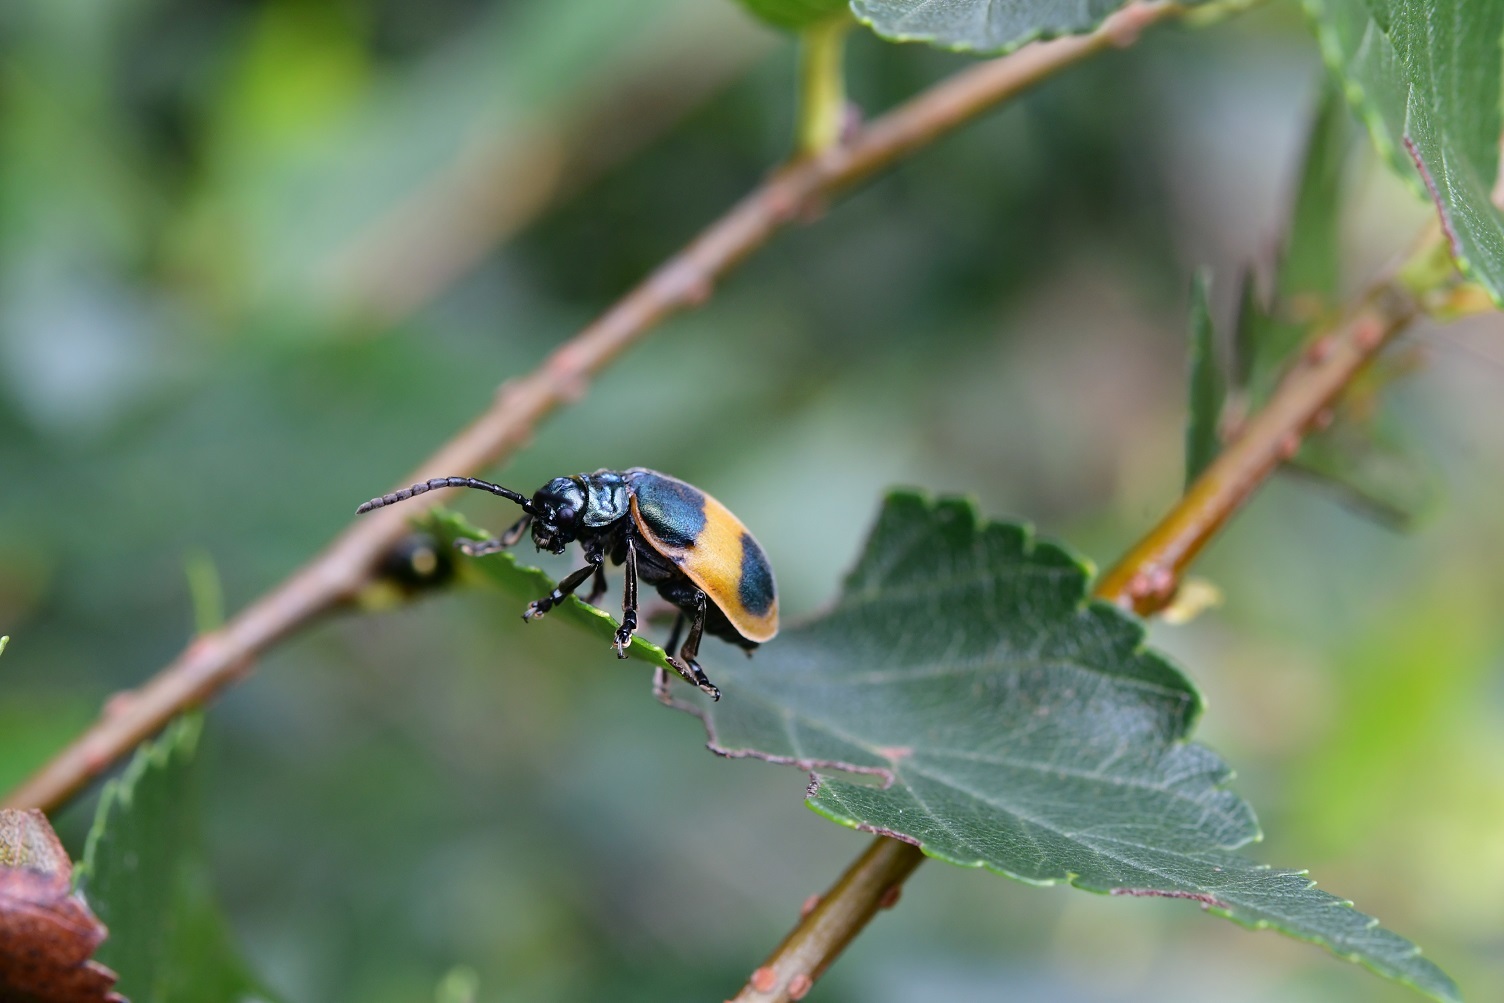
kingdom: Animalia
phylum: Arthropoda
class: Insecta
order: Coleoptera
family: Chrysomelidae
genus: Monocesta
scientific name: Monocesta
